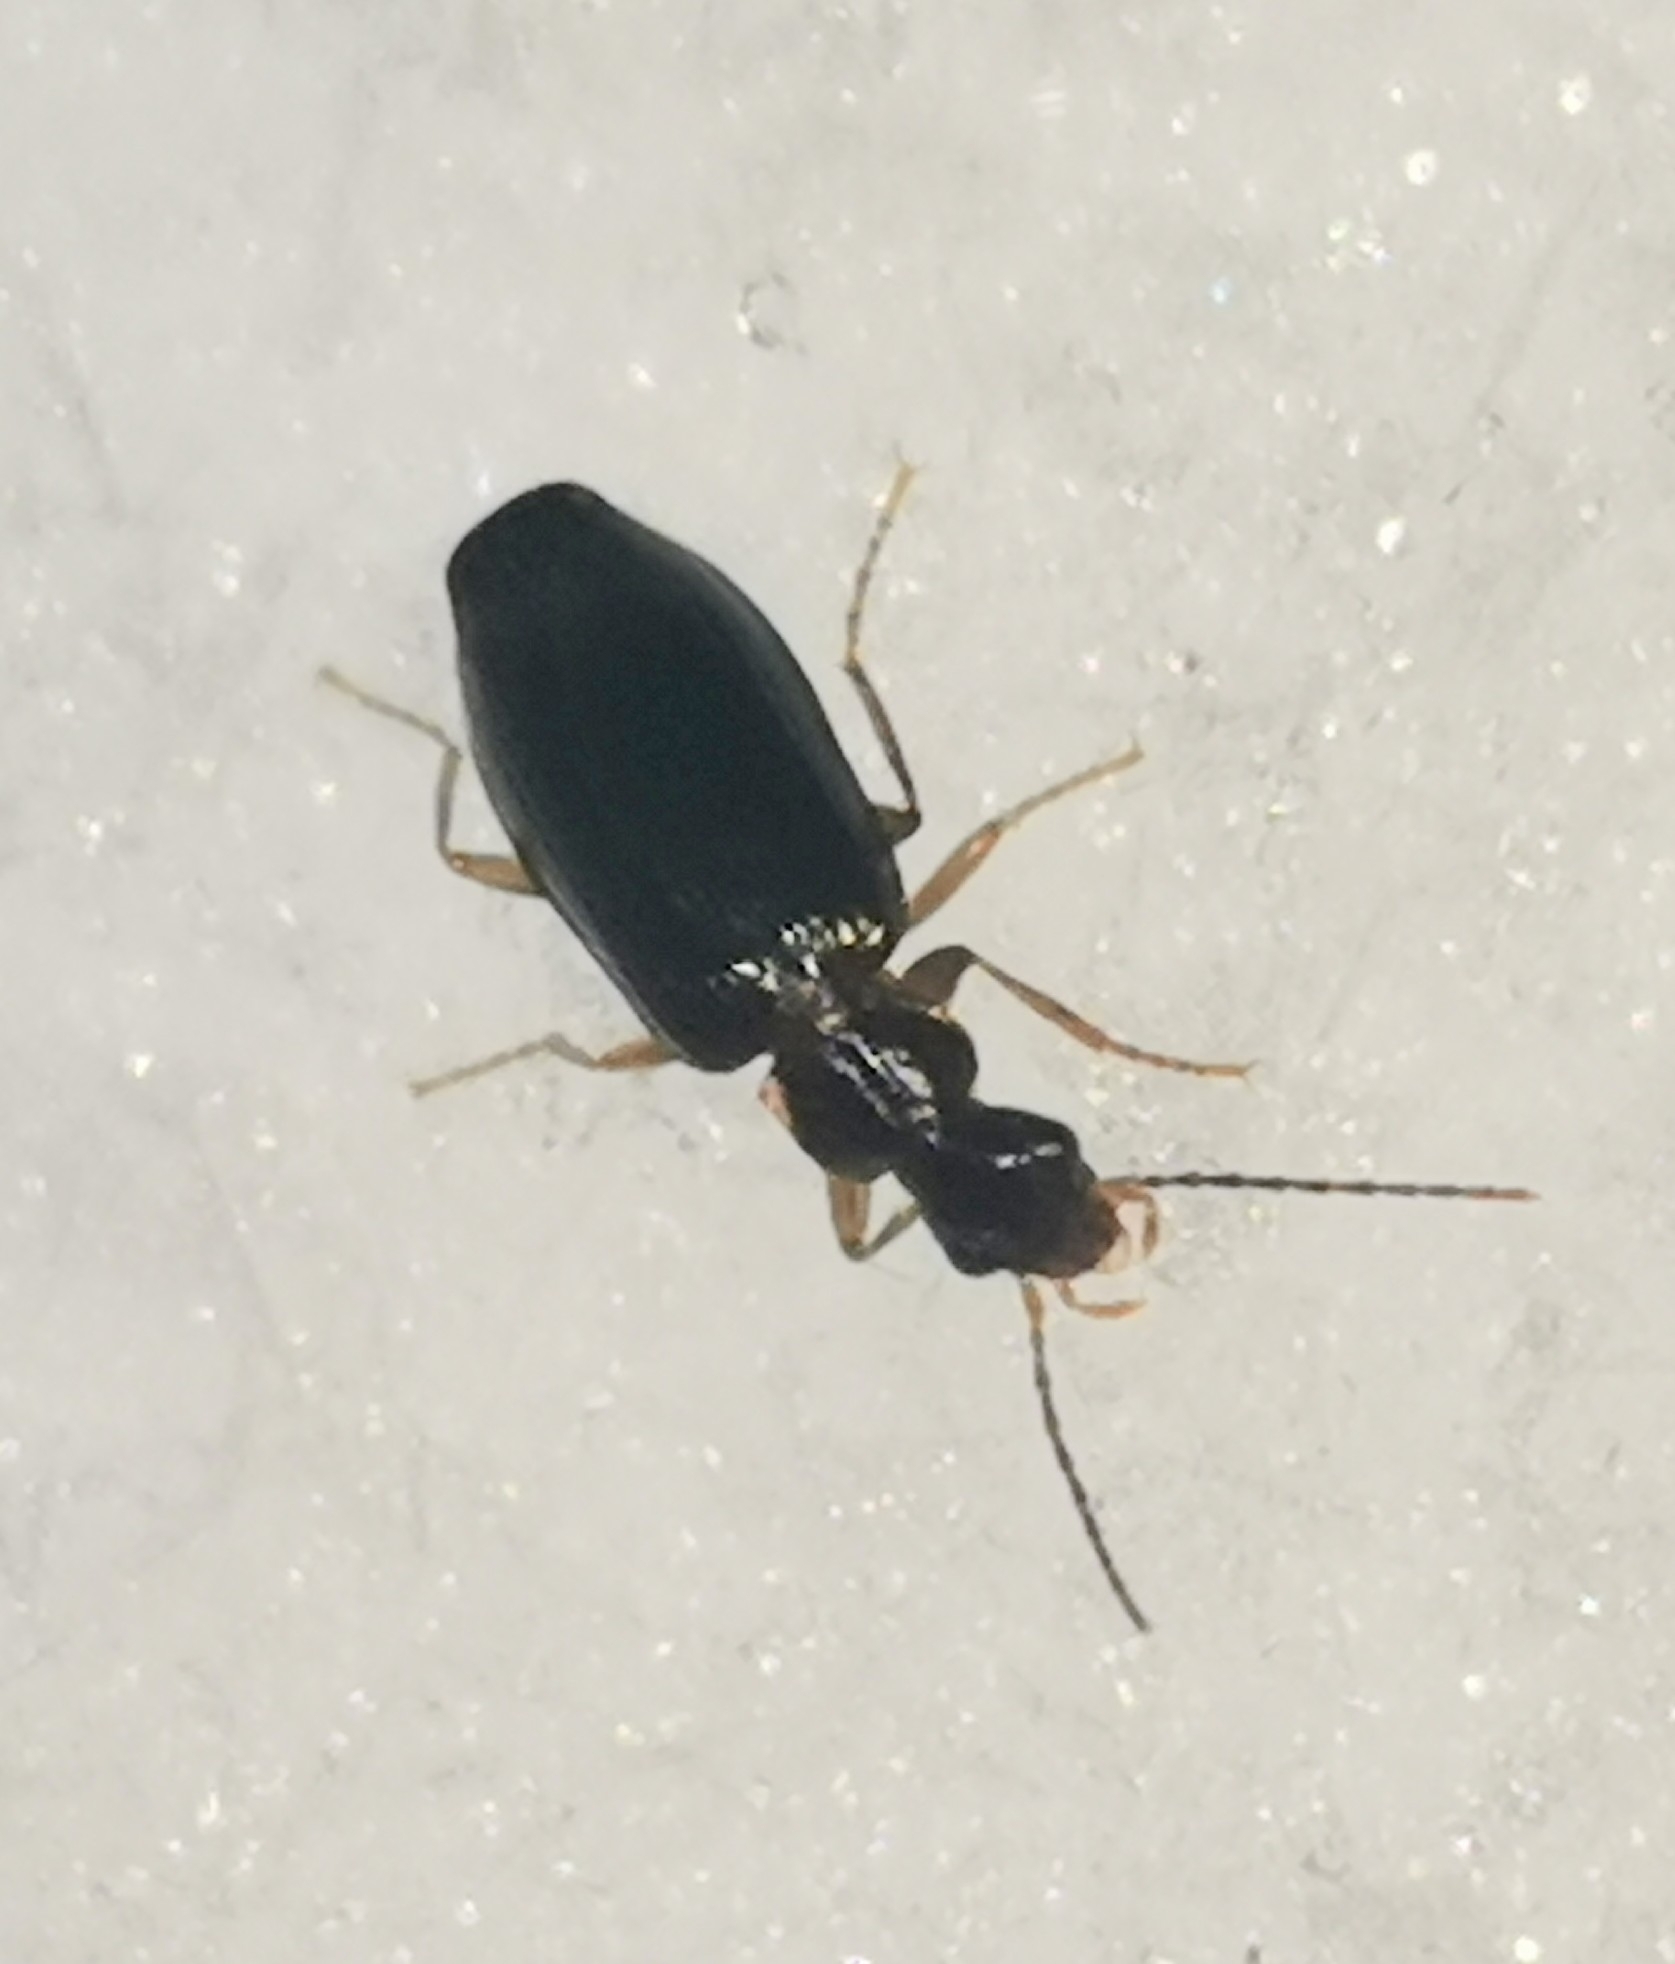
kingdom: Animalia
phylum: Arthropoda
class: Insecta
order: Coleoptera
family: Carabidae
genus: Dromius
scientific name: Dromius quadraticollis
